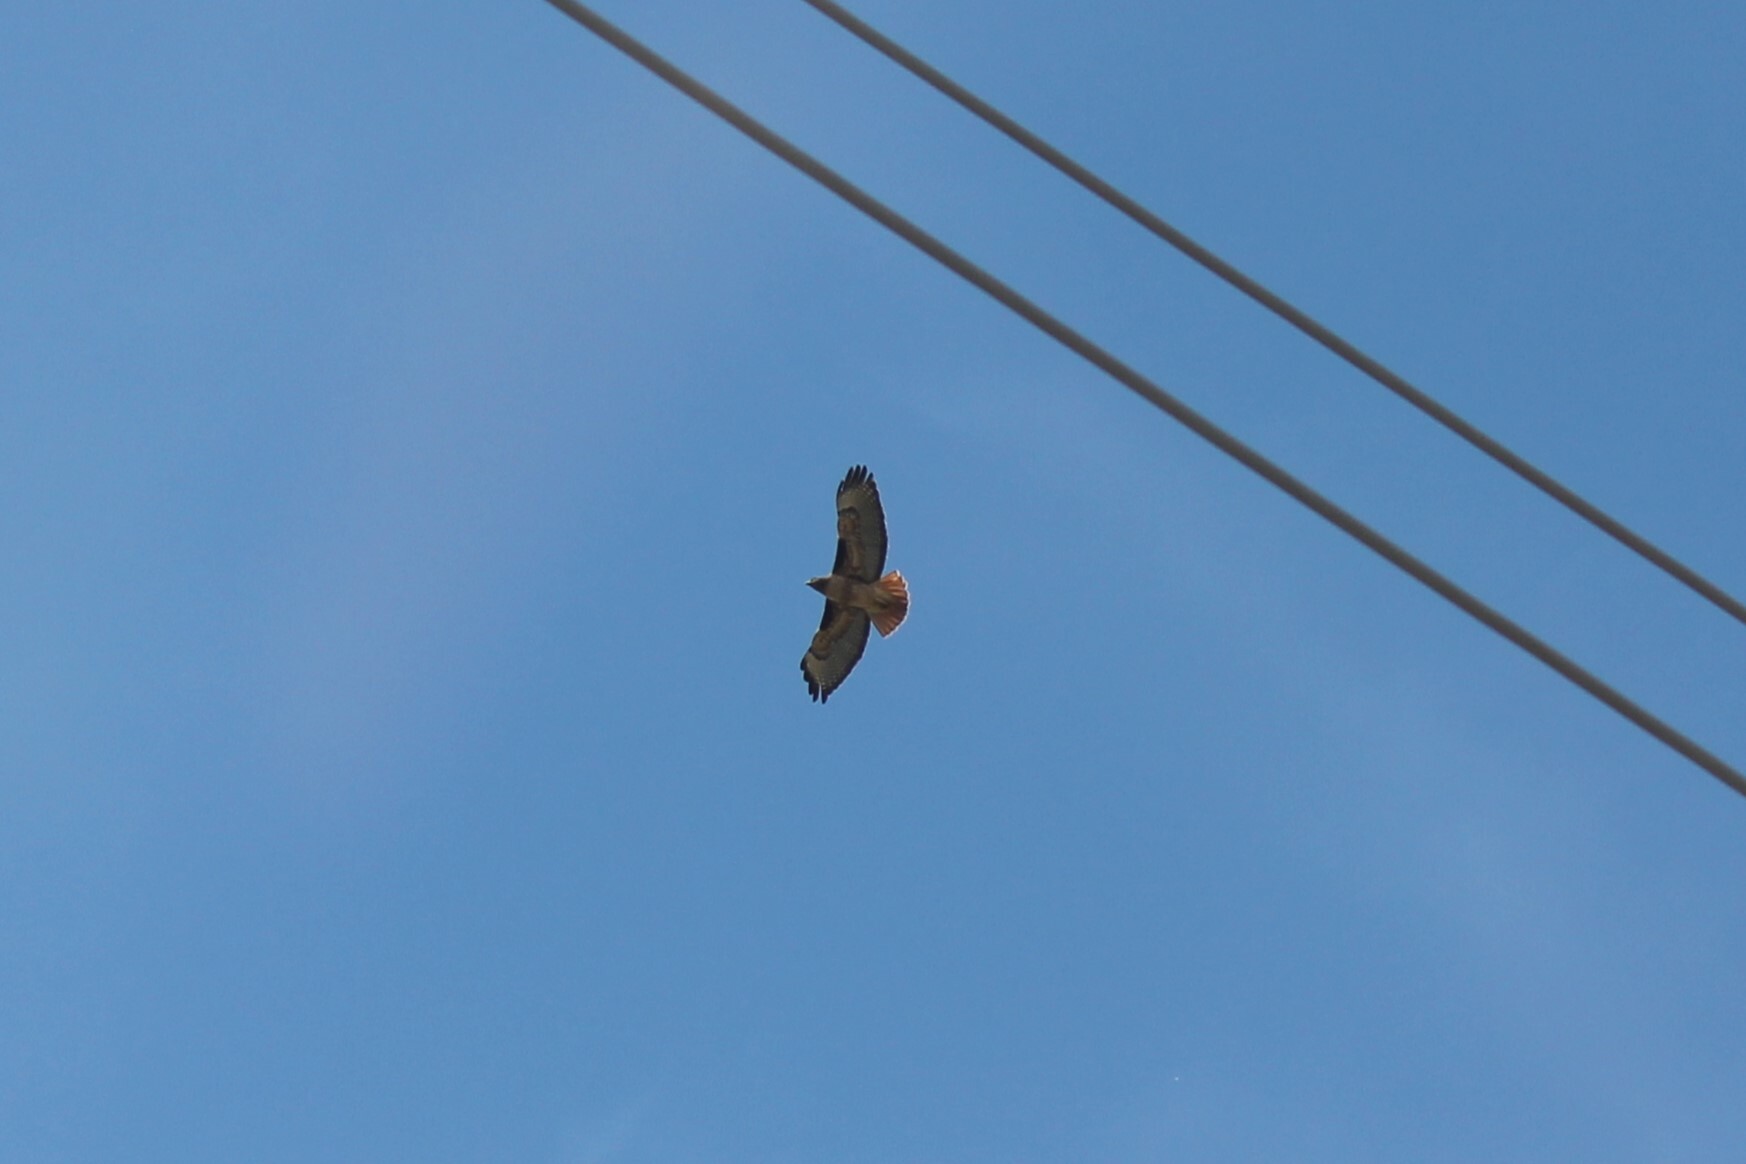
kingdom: Animalia
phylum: Chordata
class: Aves
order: Accipitriformes
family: Accipitridae
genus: Buteo
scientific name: Buteo jamaicensis
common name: Red-tailed hawk
